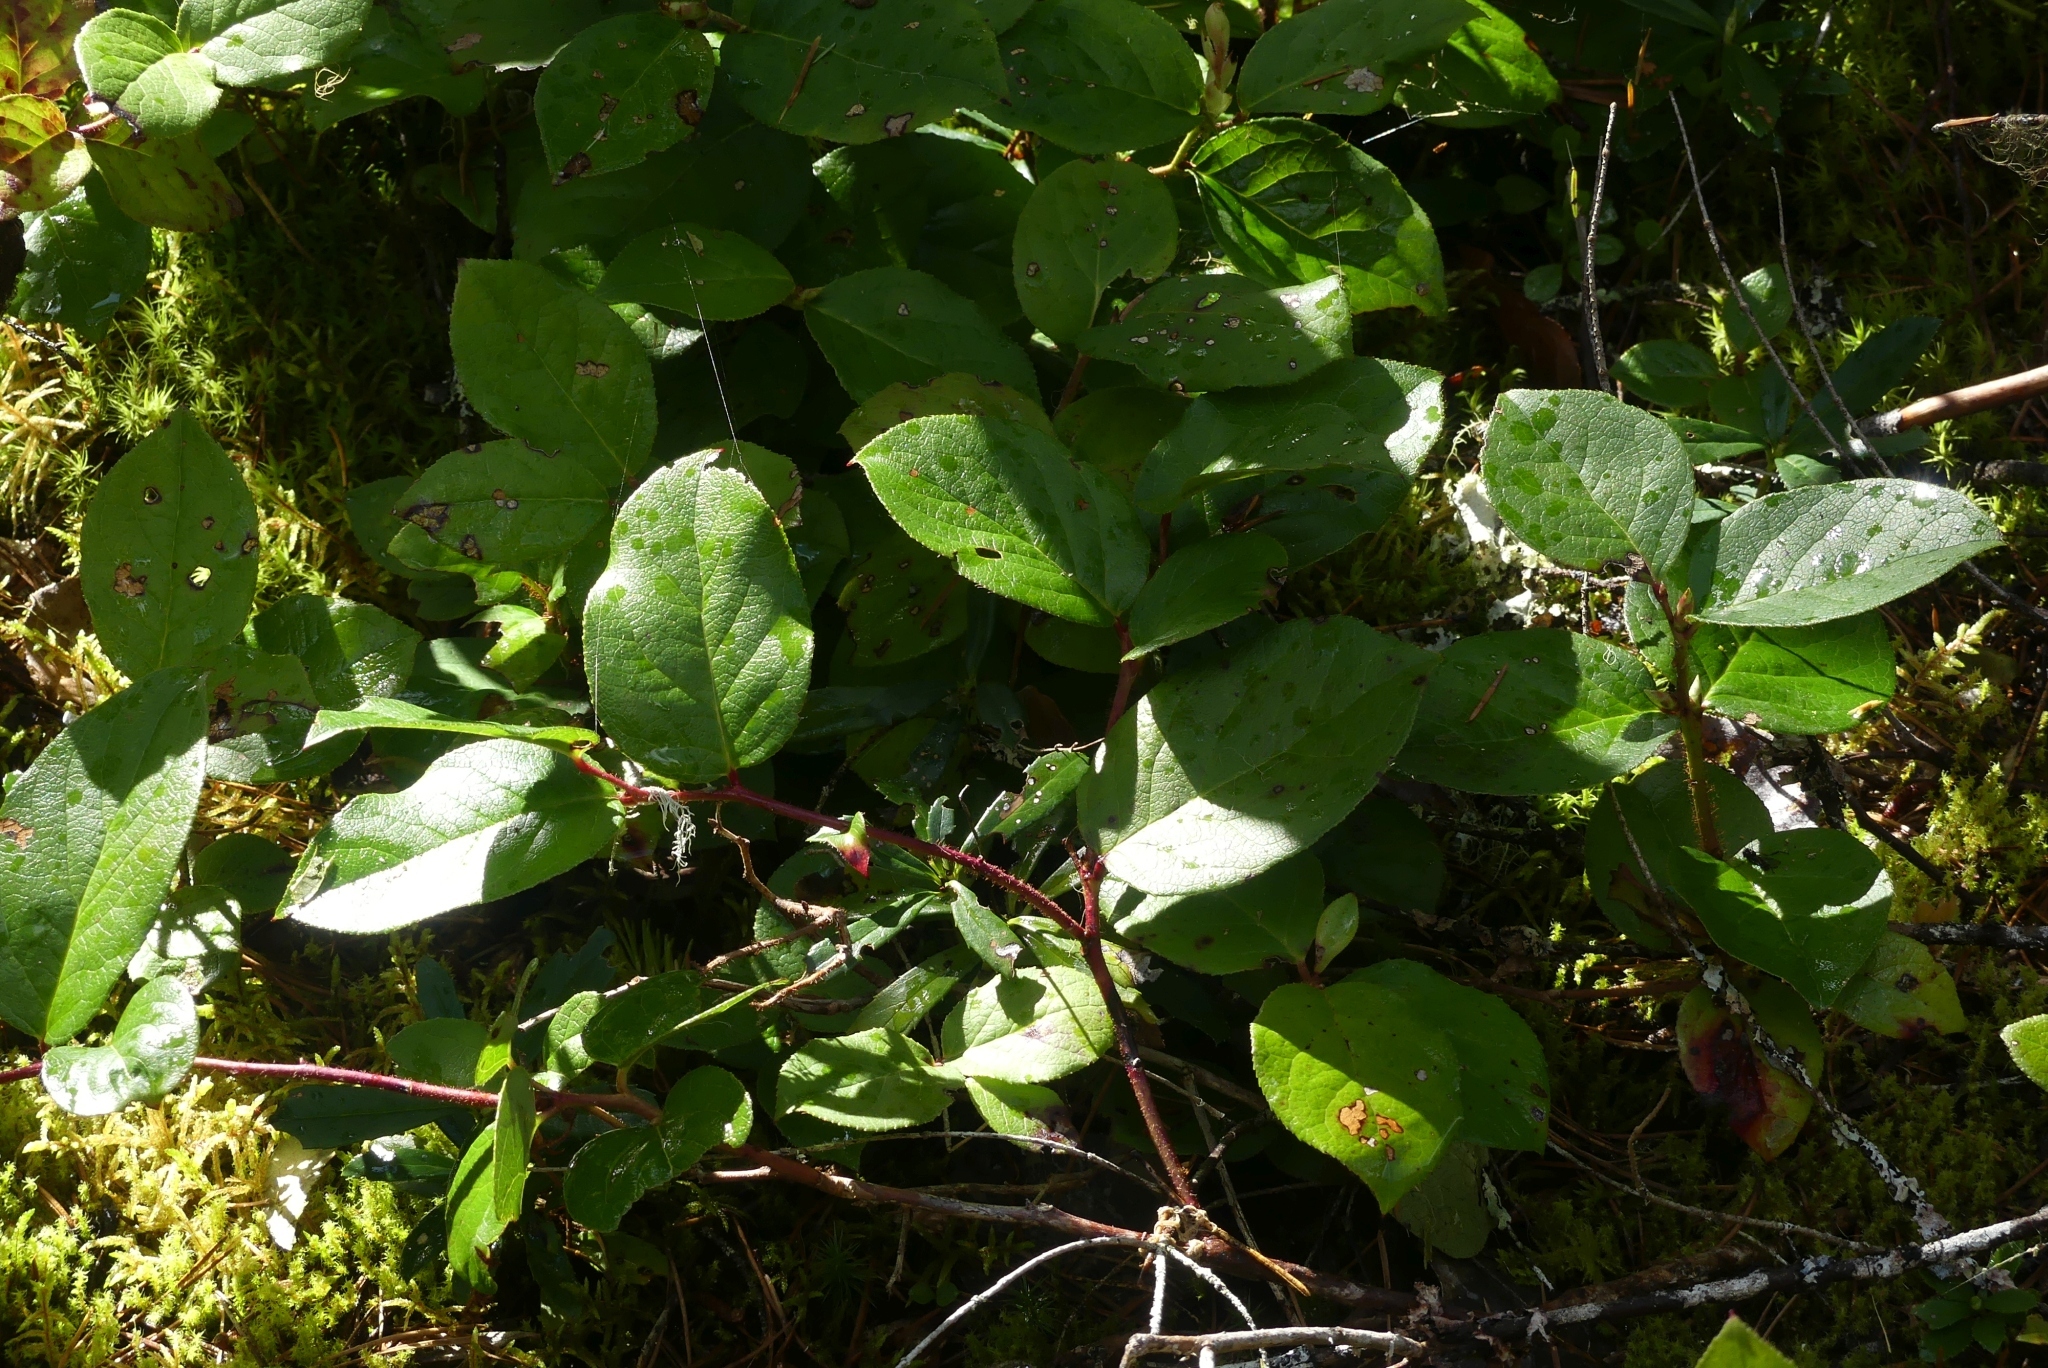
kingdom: Plantae
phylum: Tracheophyta
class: Magnoliopsida
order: Ericales
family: Ericaceae
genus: Gaultheria
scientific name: Gaultheria shallon
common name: Shallon
